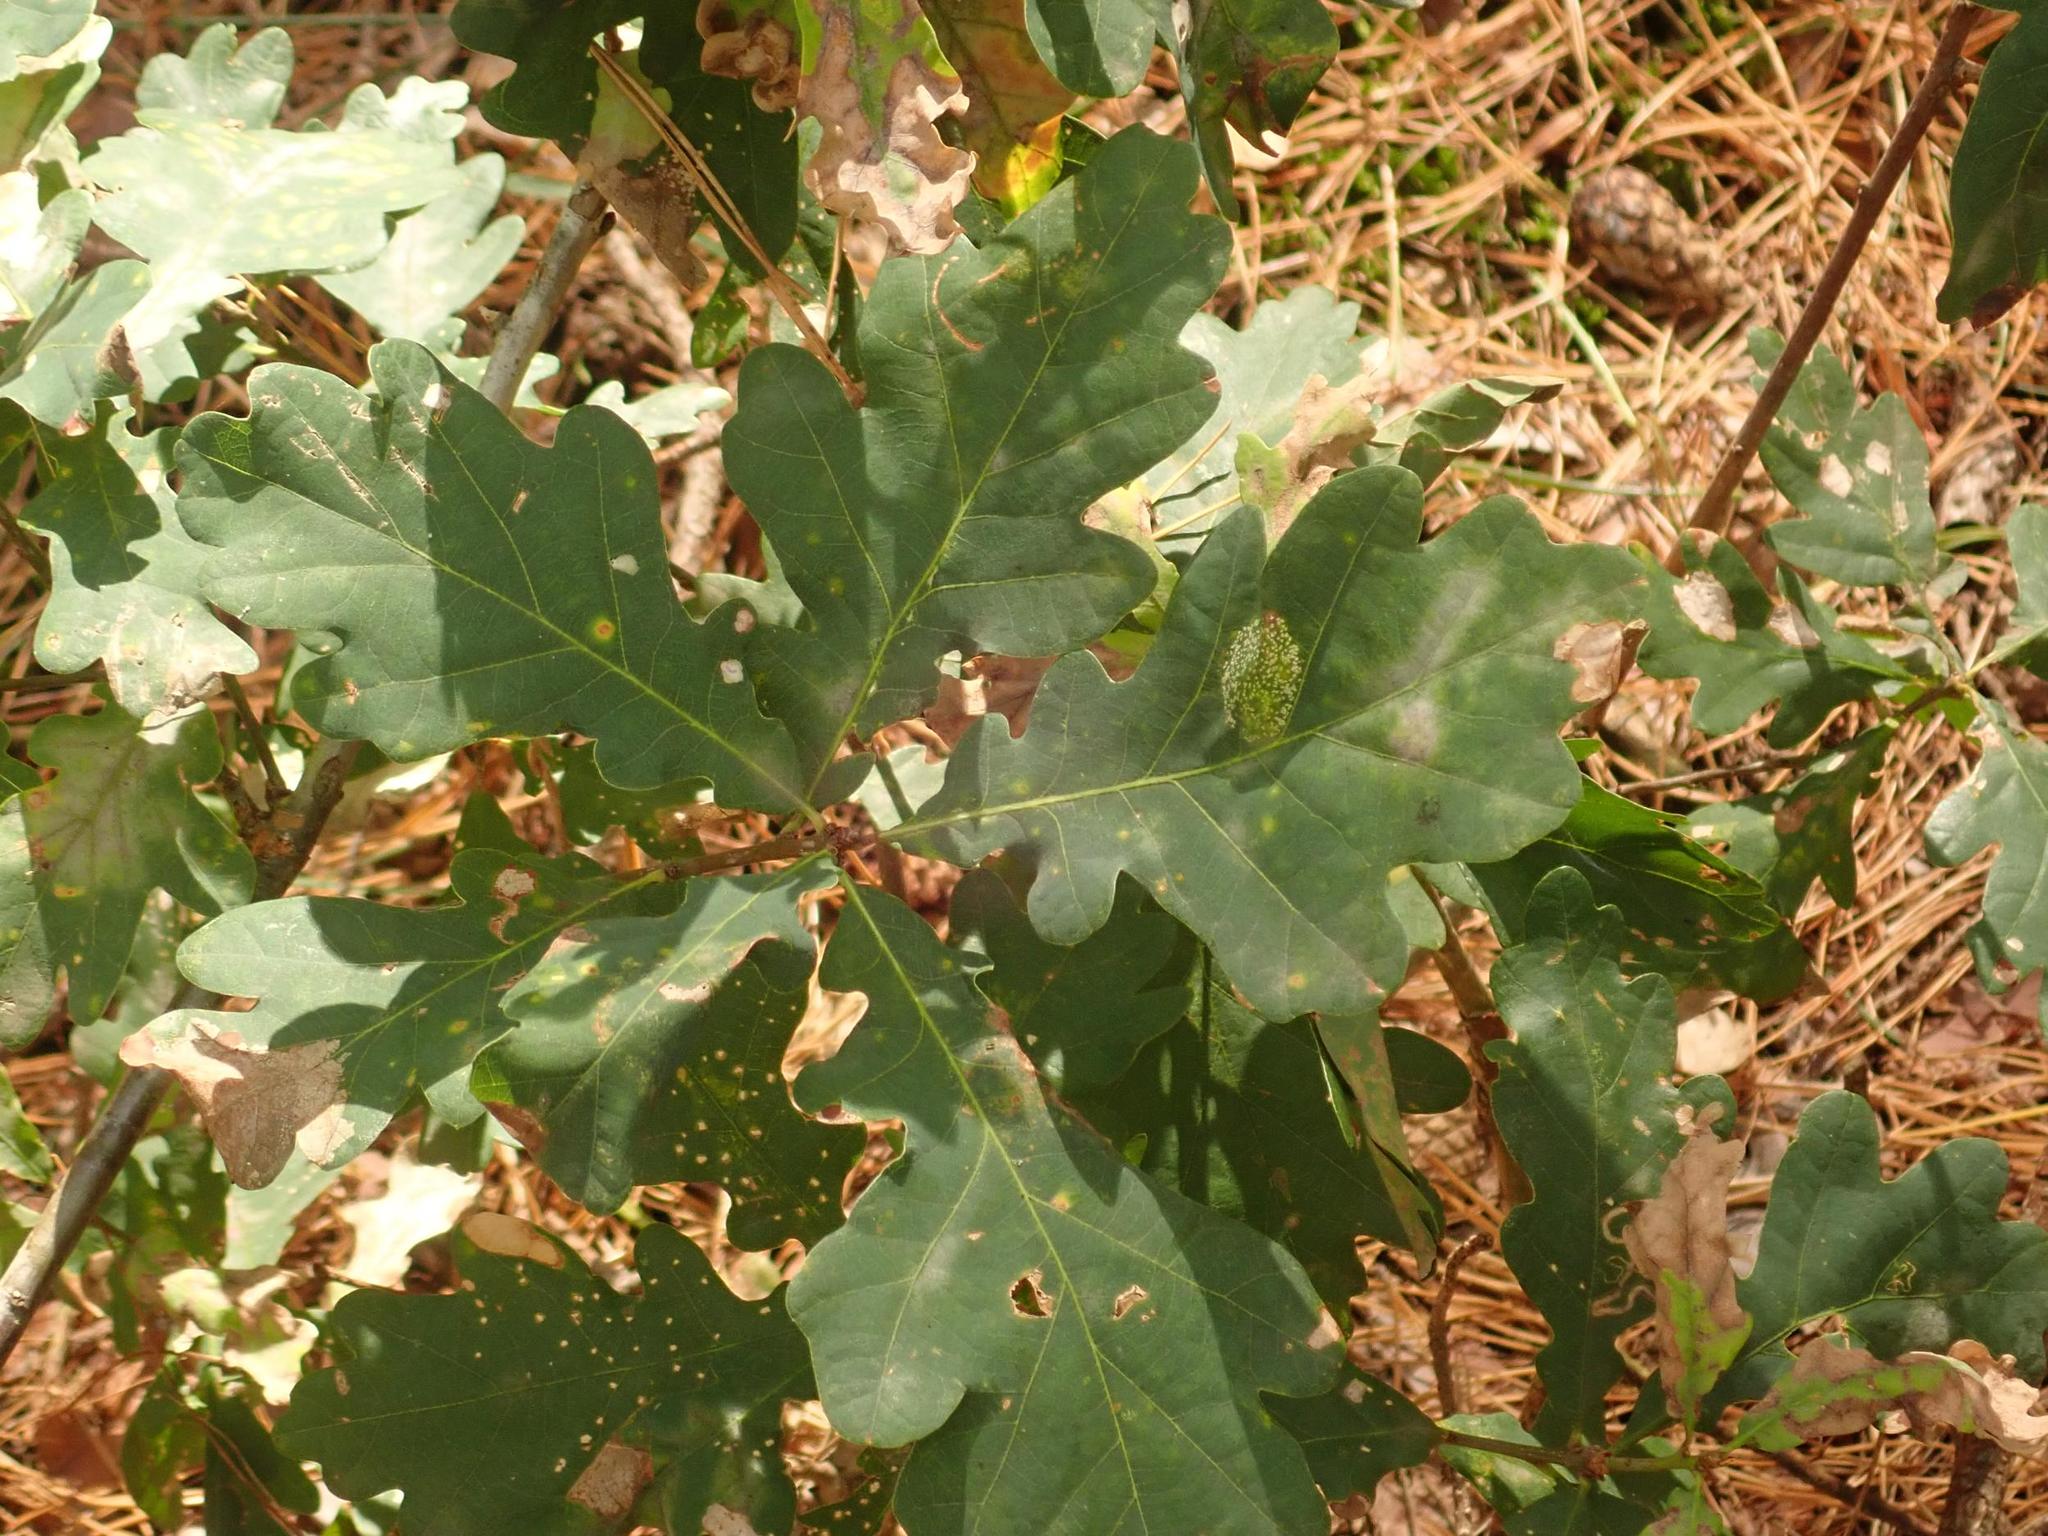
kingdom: Plantae
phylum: Tracheophyta
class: Magnoliopsida
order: Fagales
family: Fagaceae
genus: Quercus
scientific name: Quercus robur
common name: Pedunculate oak
